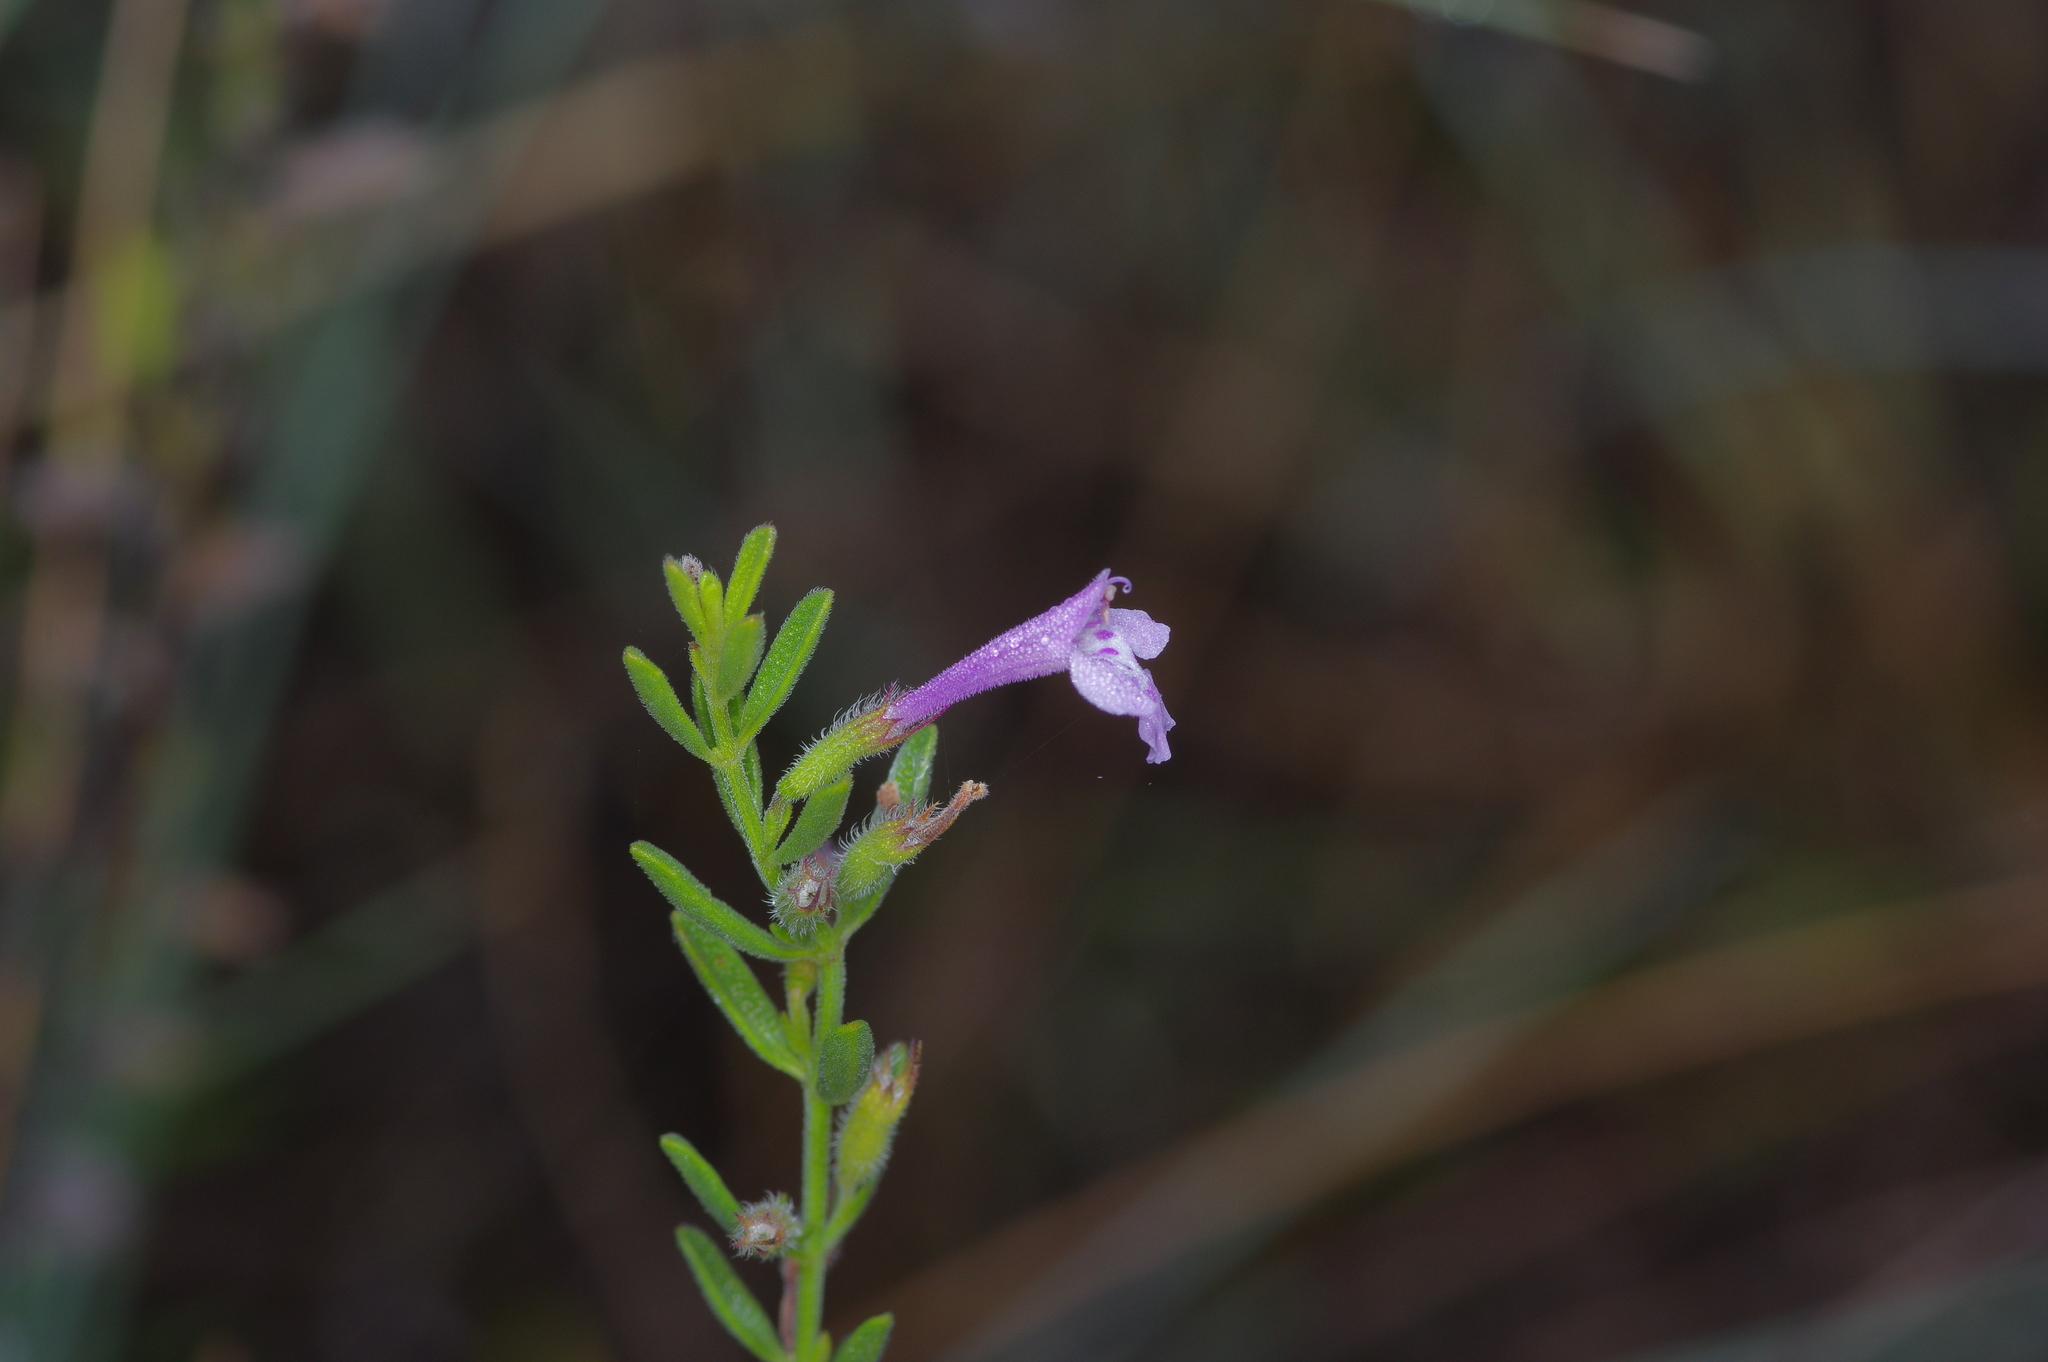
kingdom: Plantae
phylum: Tracheophyta
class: Magnoliopsida
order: Lamiales
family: Lamiaceae
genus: Hedeoma
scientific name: Hedeoma reverchonii
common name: Reverchon's false penny-royal
